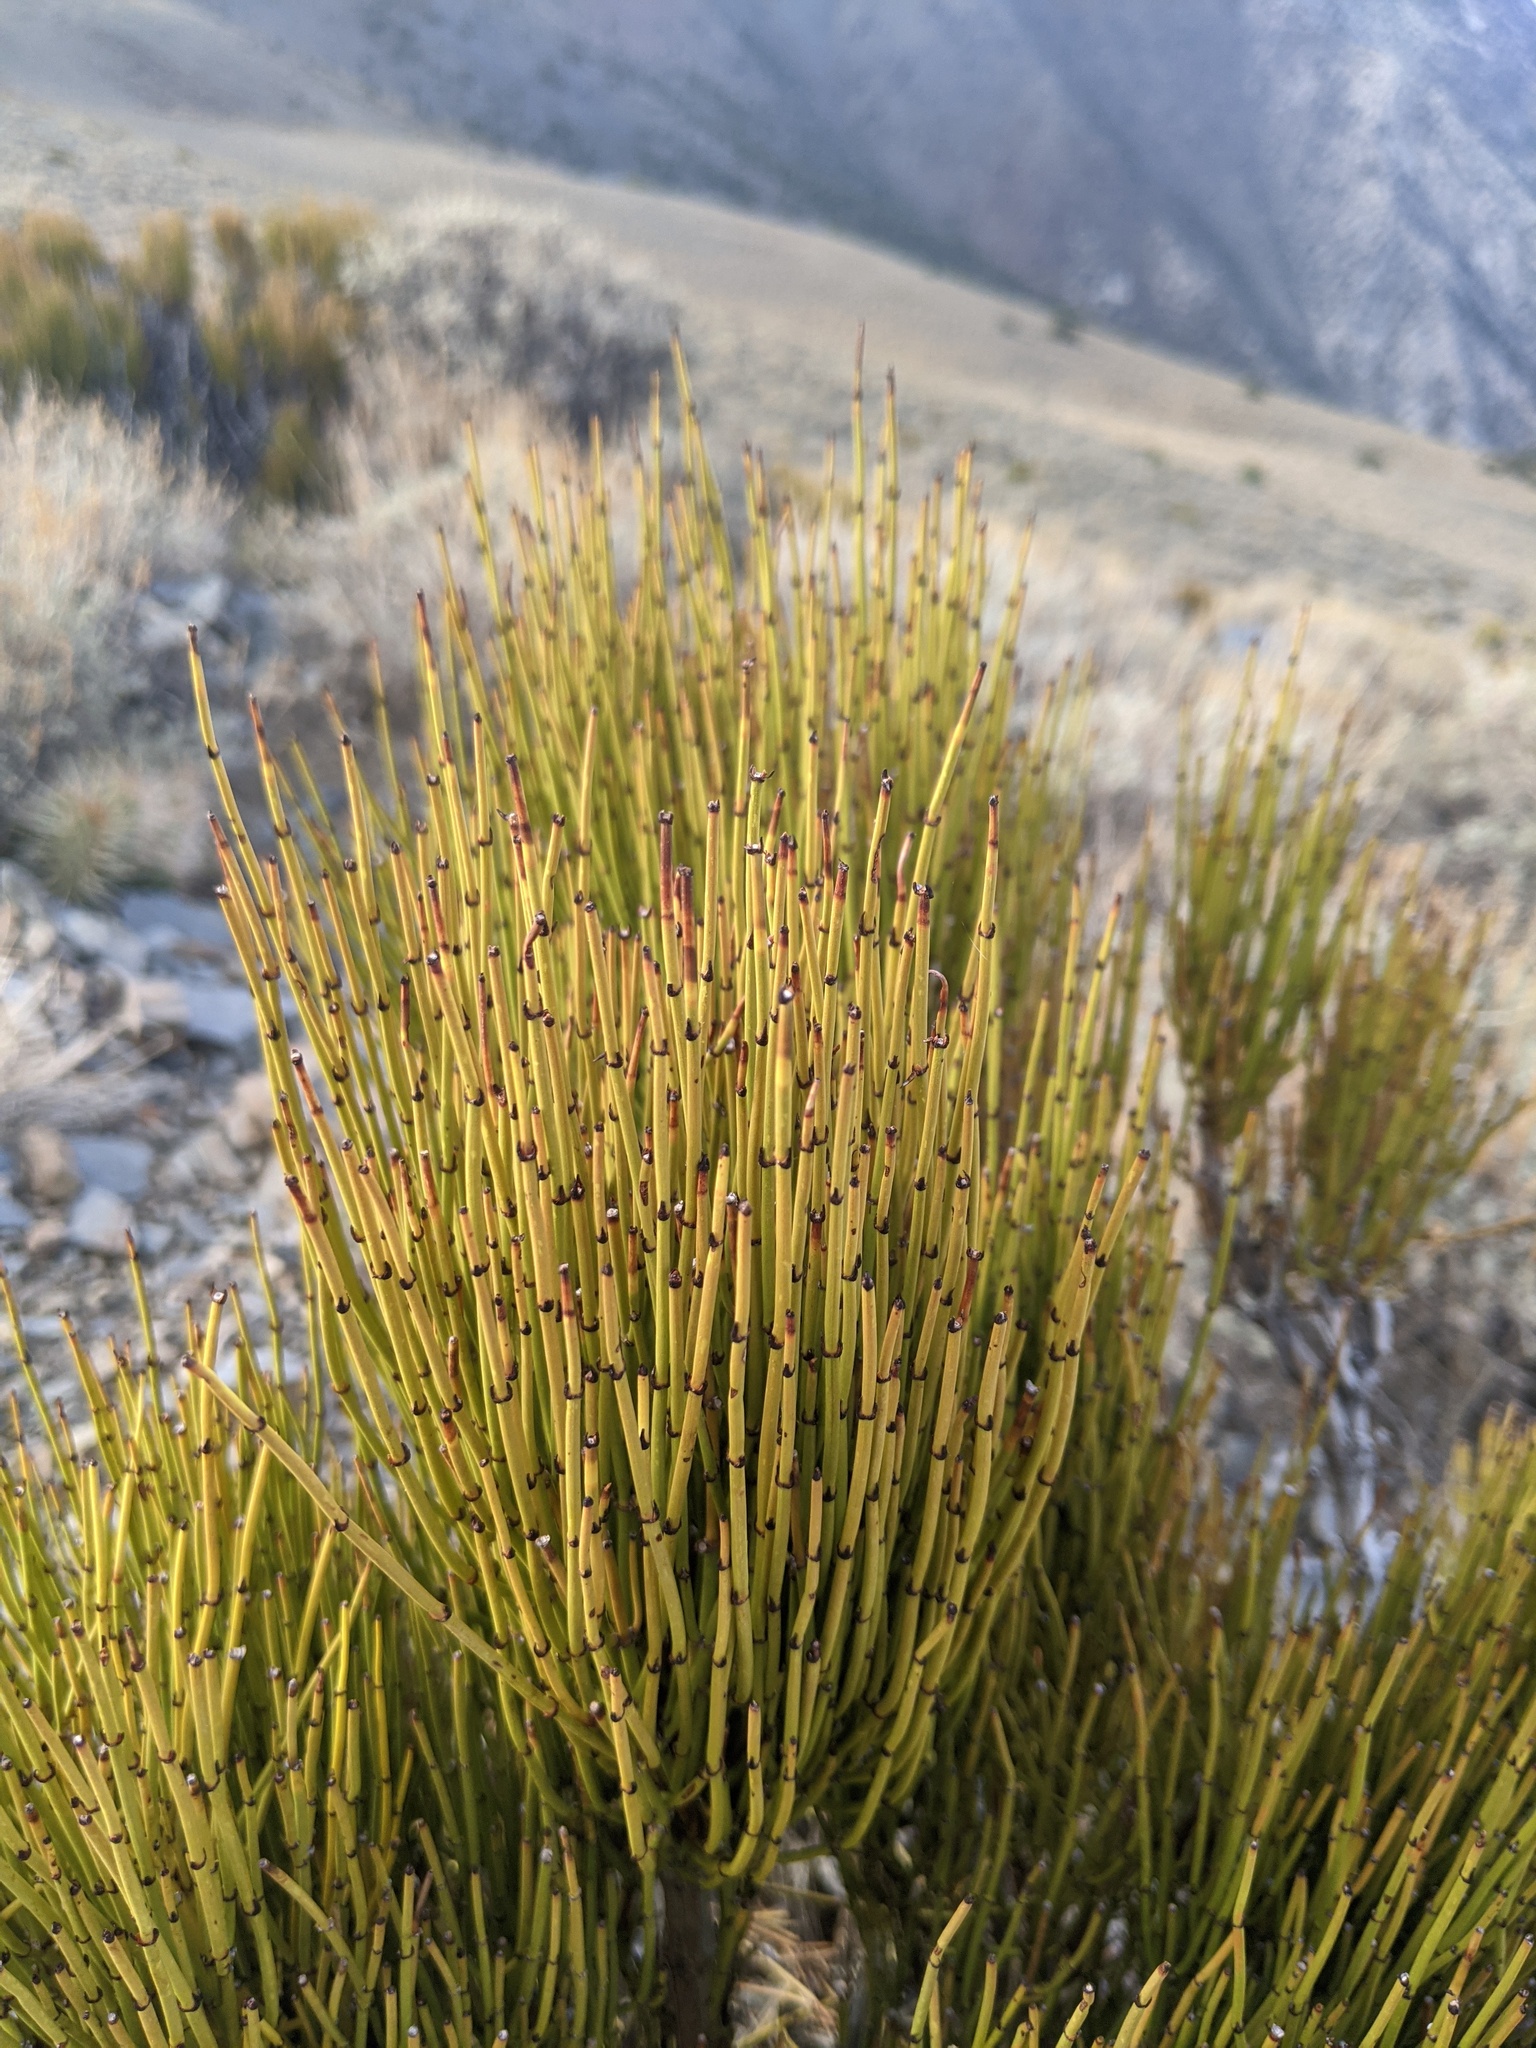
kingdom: Plantae
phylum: Tracheophyta
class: Gnetopsida
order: Ephedrales
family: Ephedraceae
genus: Ephedra
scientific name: Ephedra viridis
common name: Green ephedra
